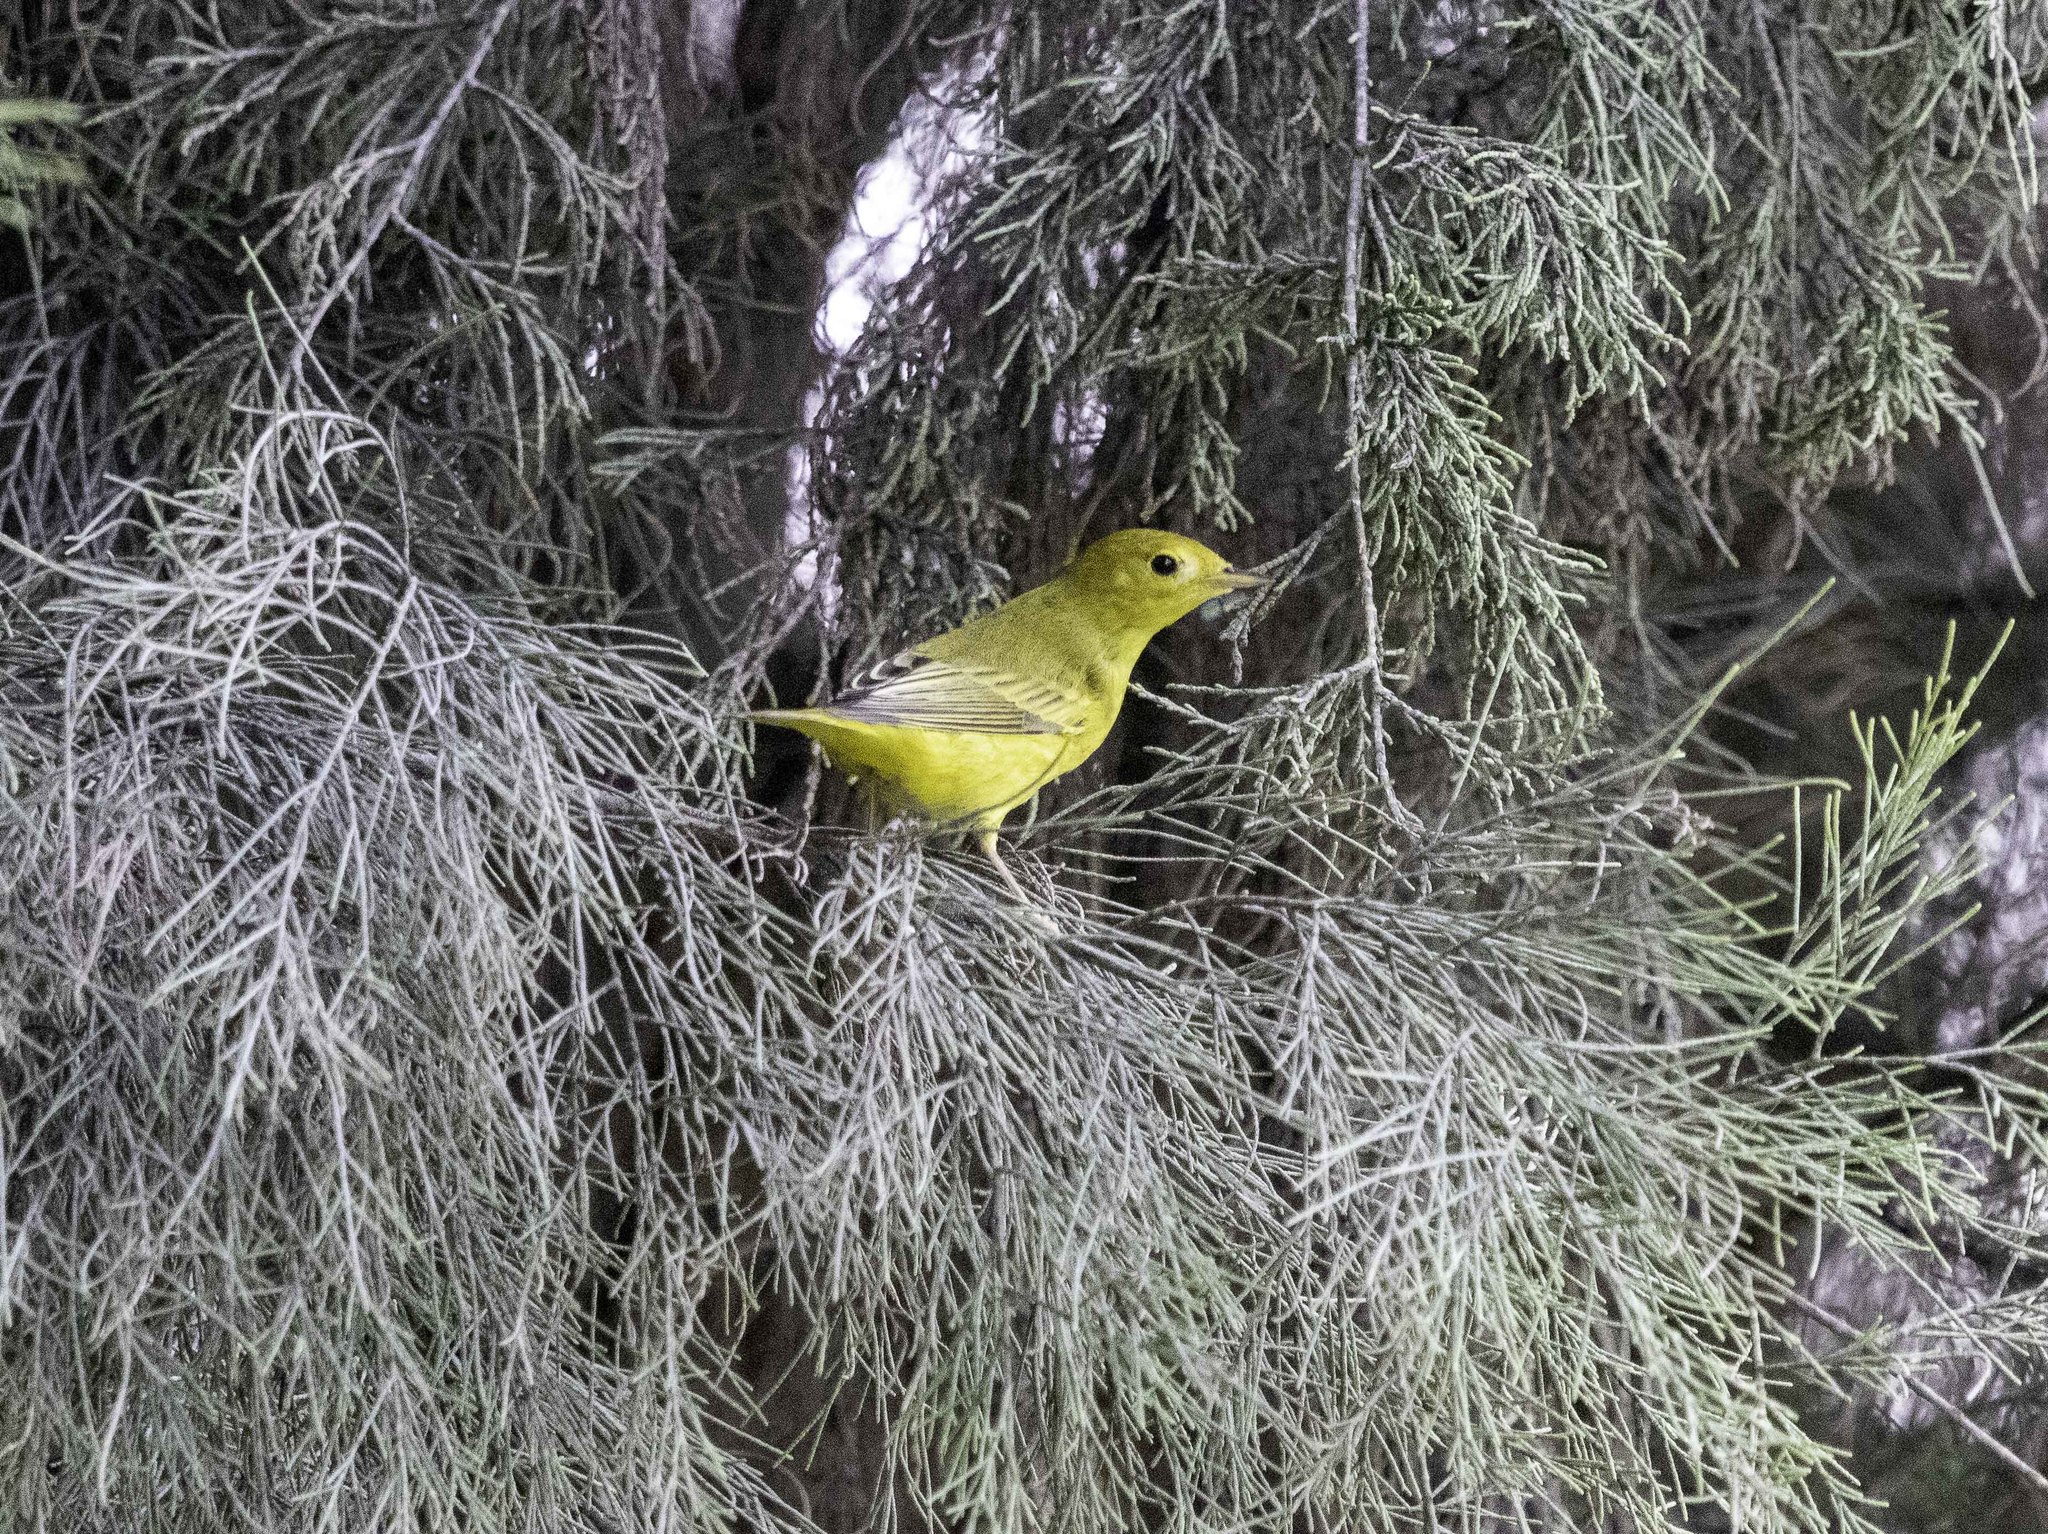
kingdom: Animalia
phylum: Chordata
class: Aves
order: Passeriformes
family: Parulidae
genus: Setophaga
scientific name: Setophaga petechia
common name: Yellow warbler
